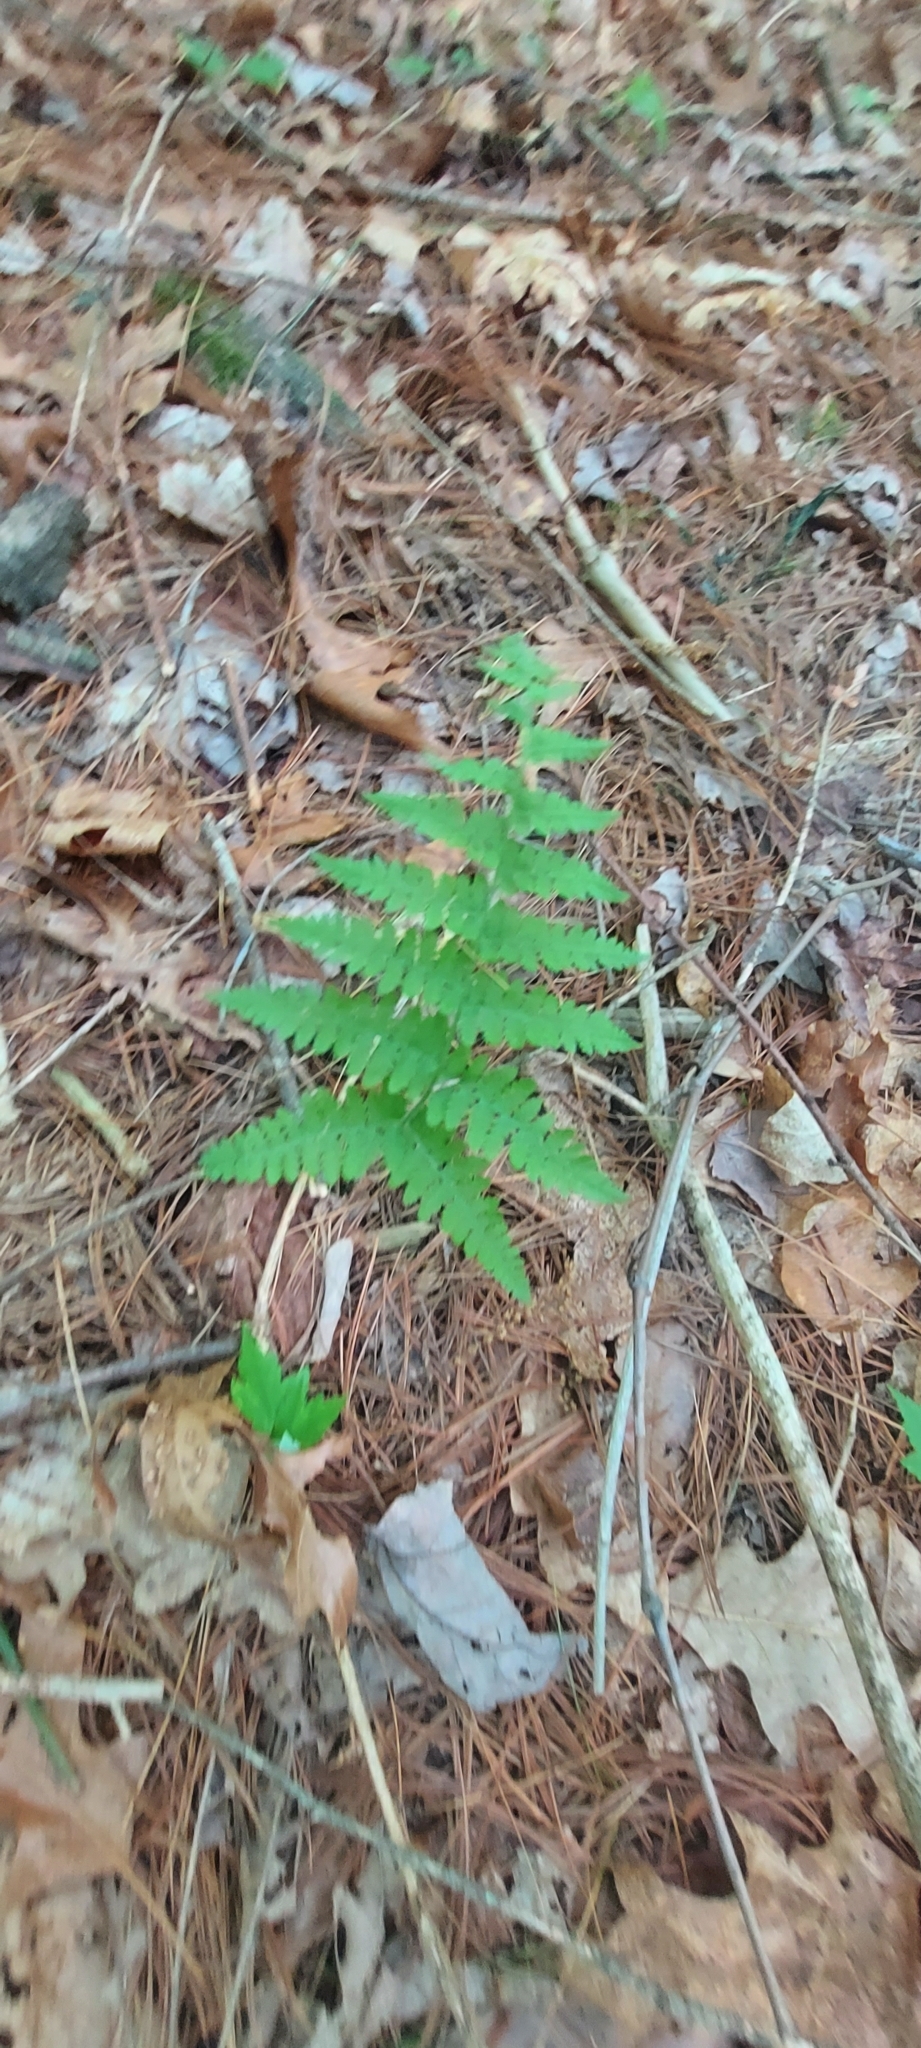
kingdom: Plantae
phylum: Tracheophyta
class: Polypodiopsida
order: Polypodiales
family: Dryopteridaceae
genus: Dryopteris
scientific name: Dryopteris intermedia
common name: Evergreen wood fern
